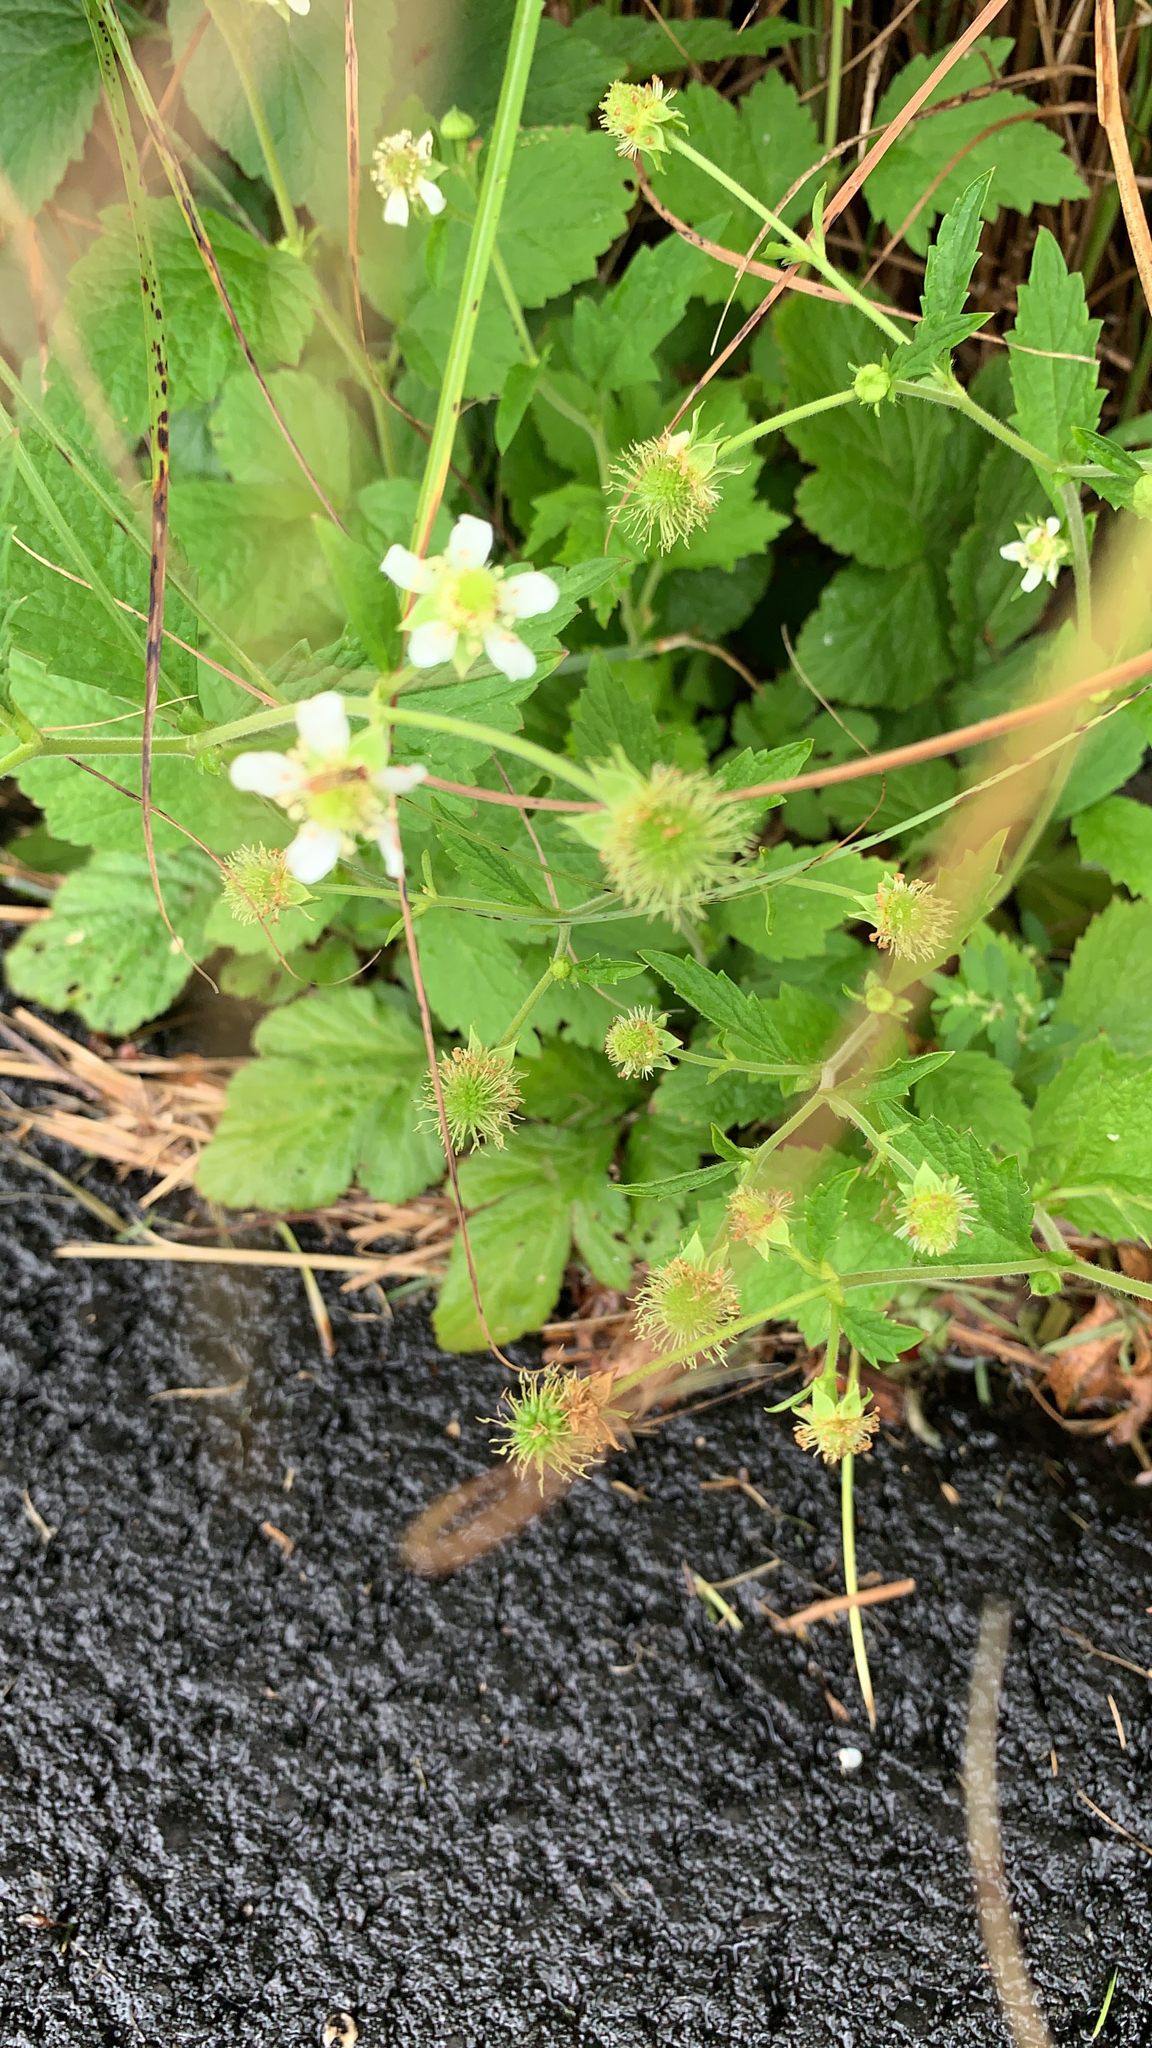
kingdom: Plantae
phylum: Tracheophyta
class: Magnoliopsida
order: Rosales
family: Rosaceae
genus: Geum
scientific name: Geum canadense
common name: White avens
